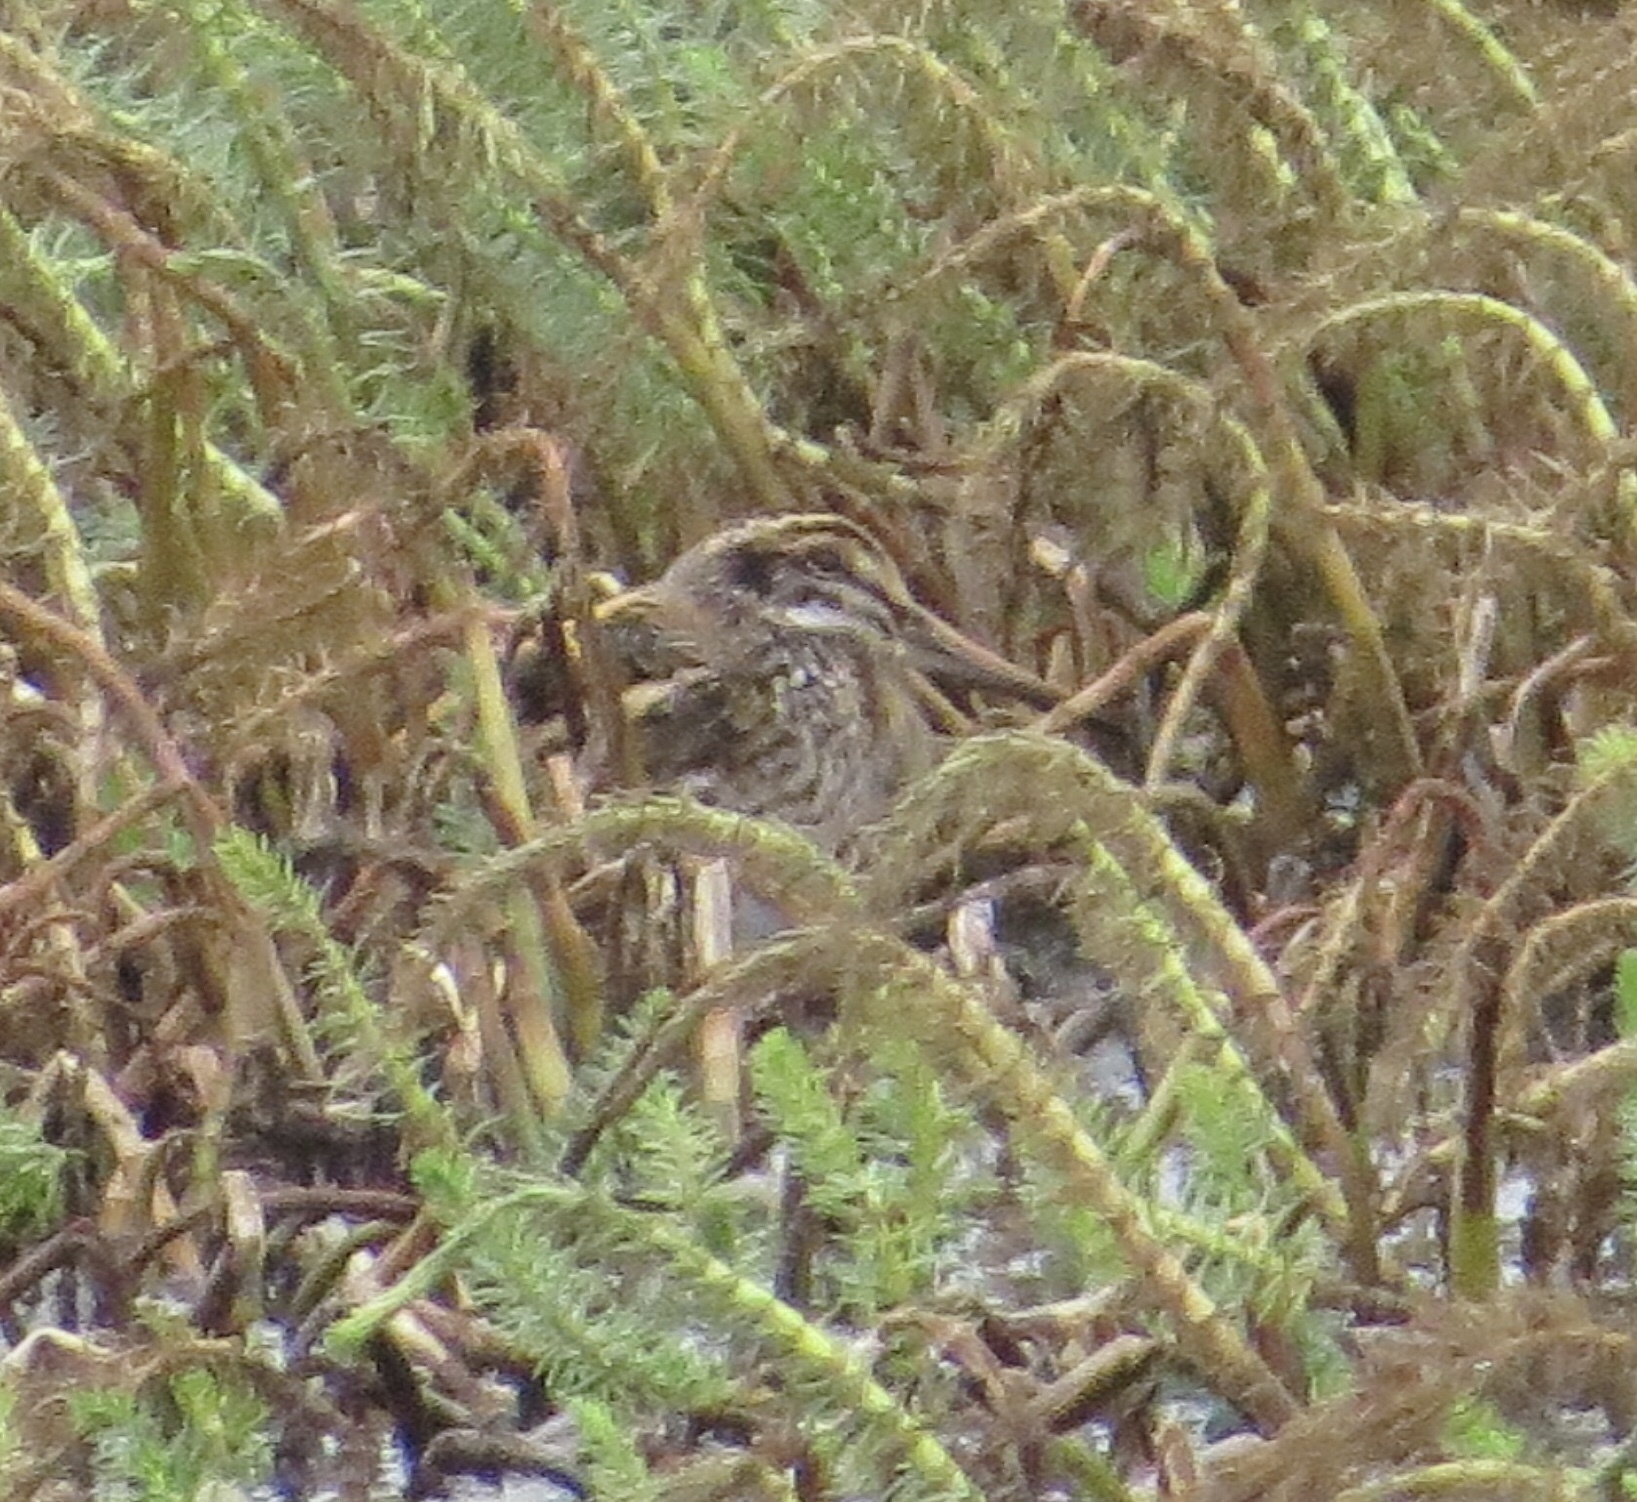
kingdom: Animalia
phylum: Chordata
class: Aves
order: Charadriiformes
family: Scolopacidae
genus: Lymnocryptes
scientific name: Lymnocryptes minimus
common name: Jack snipe
